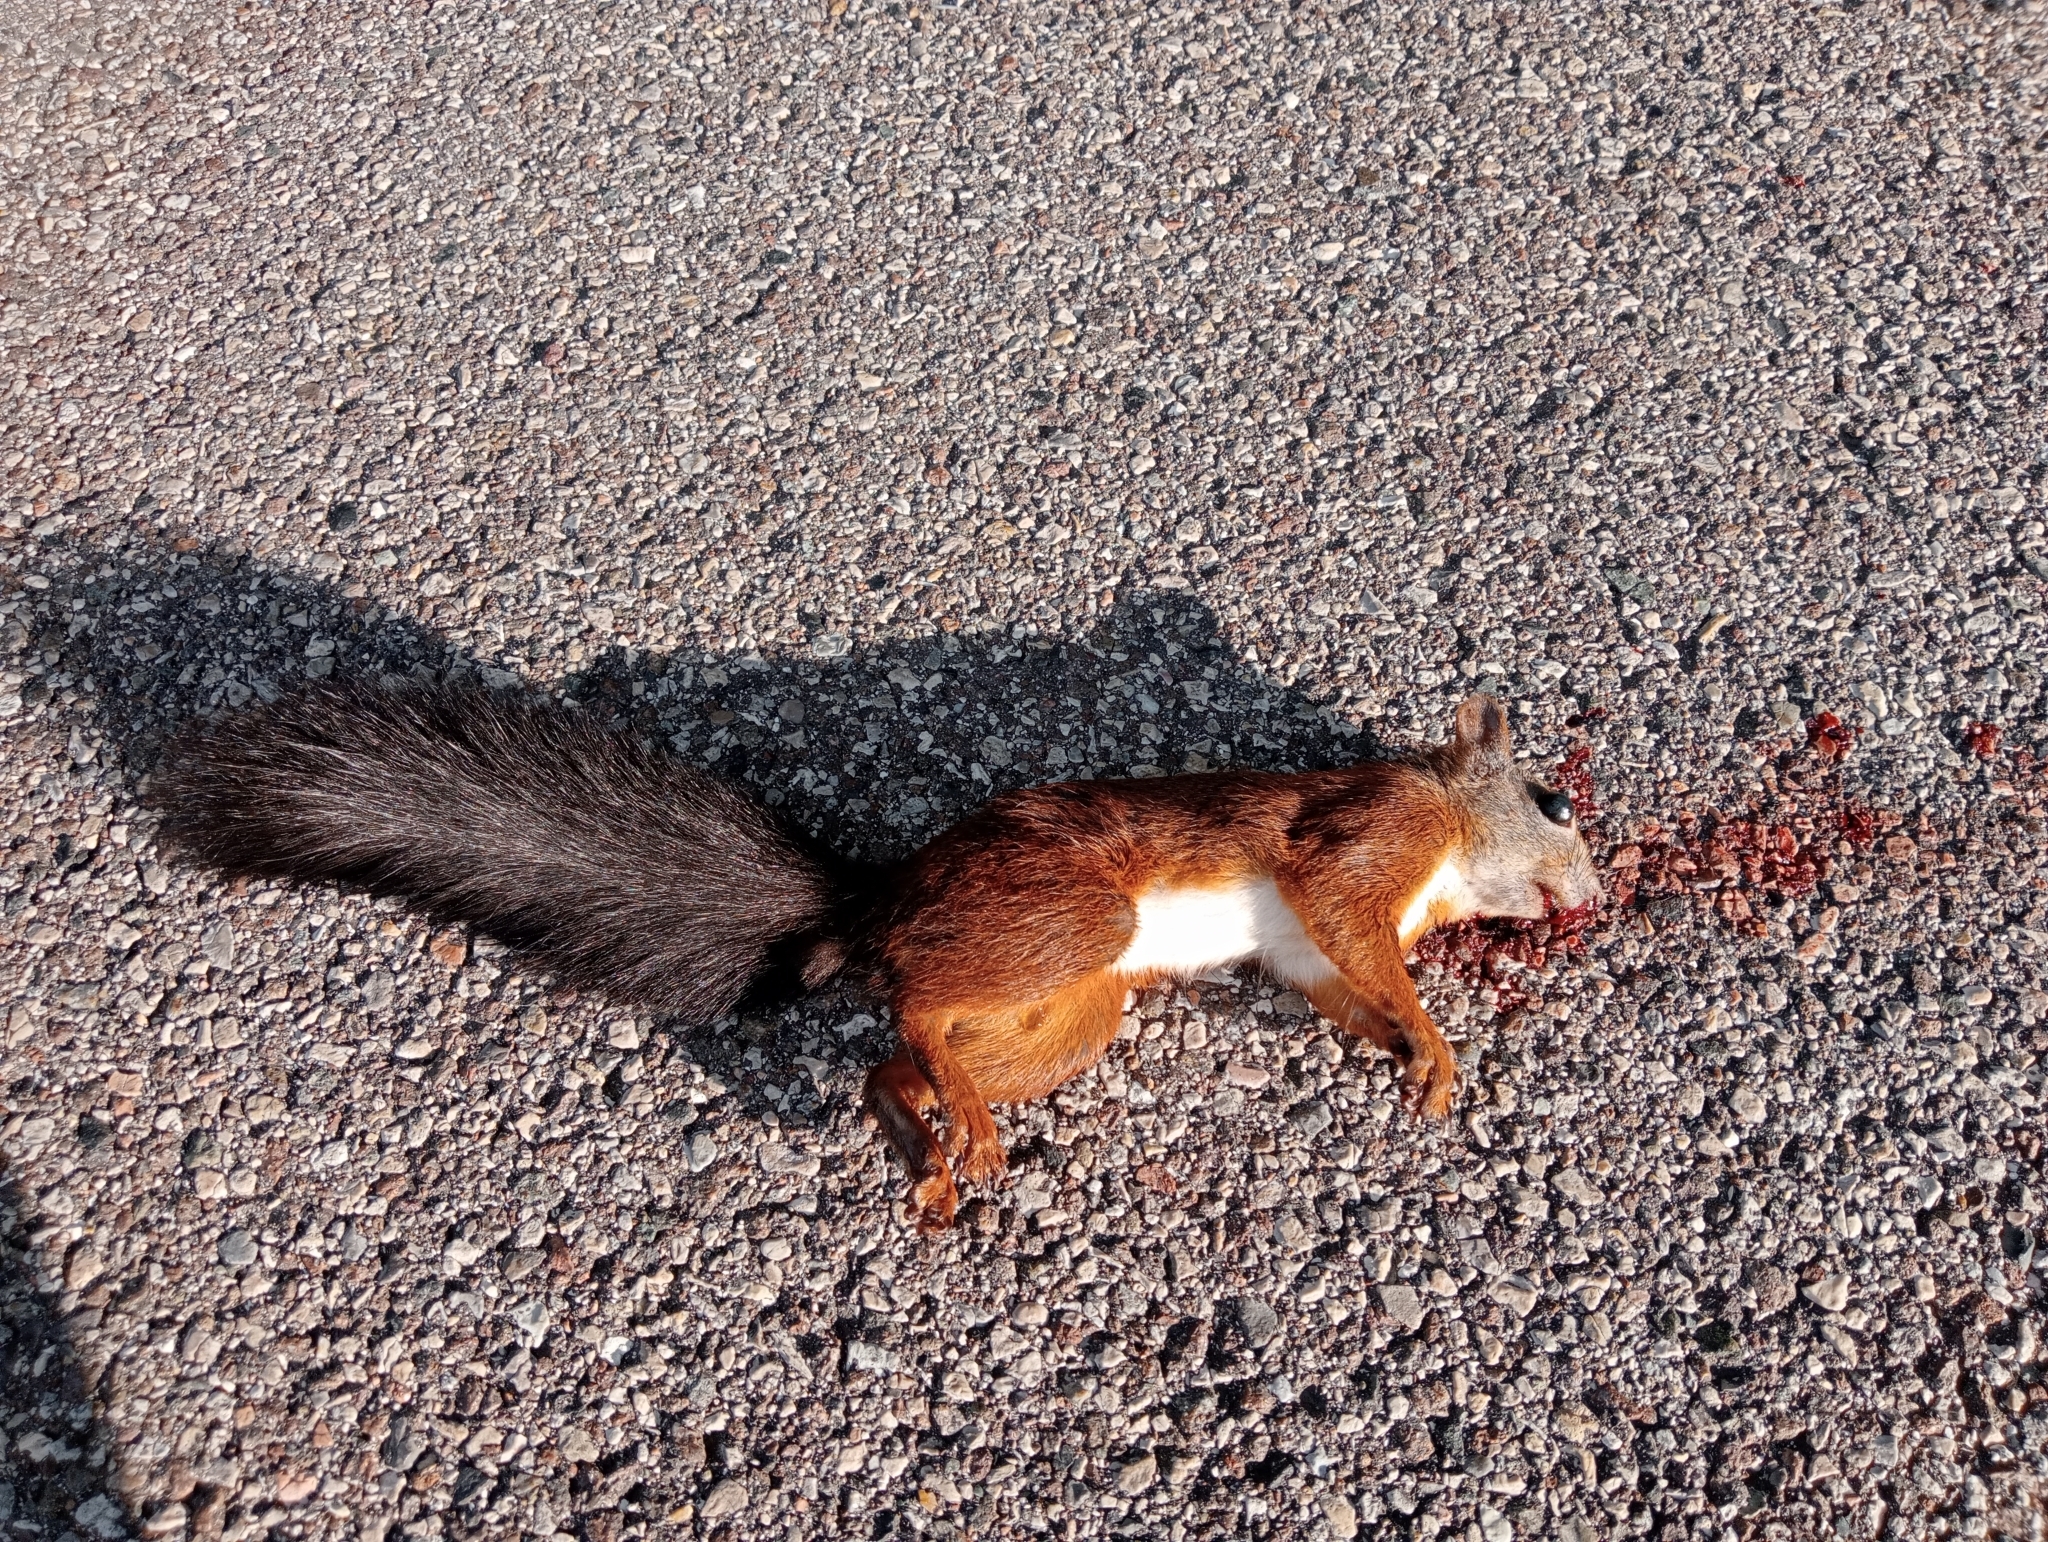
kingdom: Animalia
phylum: Chordata
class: Mammalia
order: Rodentia
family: Sciuridae
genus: Sciurus
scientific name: Sciurus vulgaris
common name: Eurasian red squirrel
